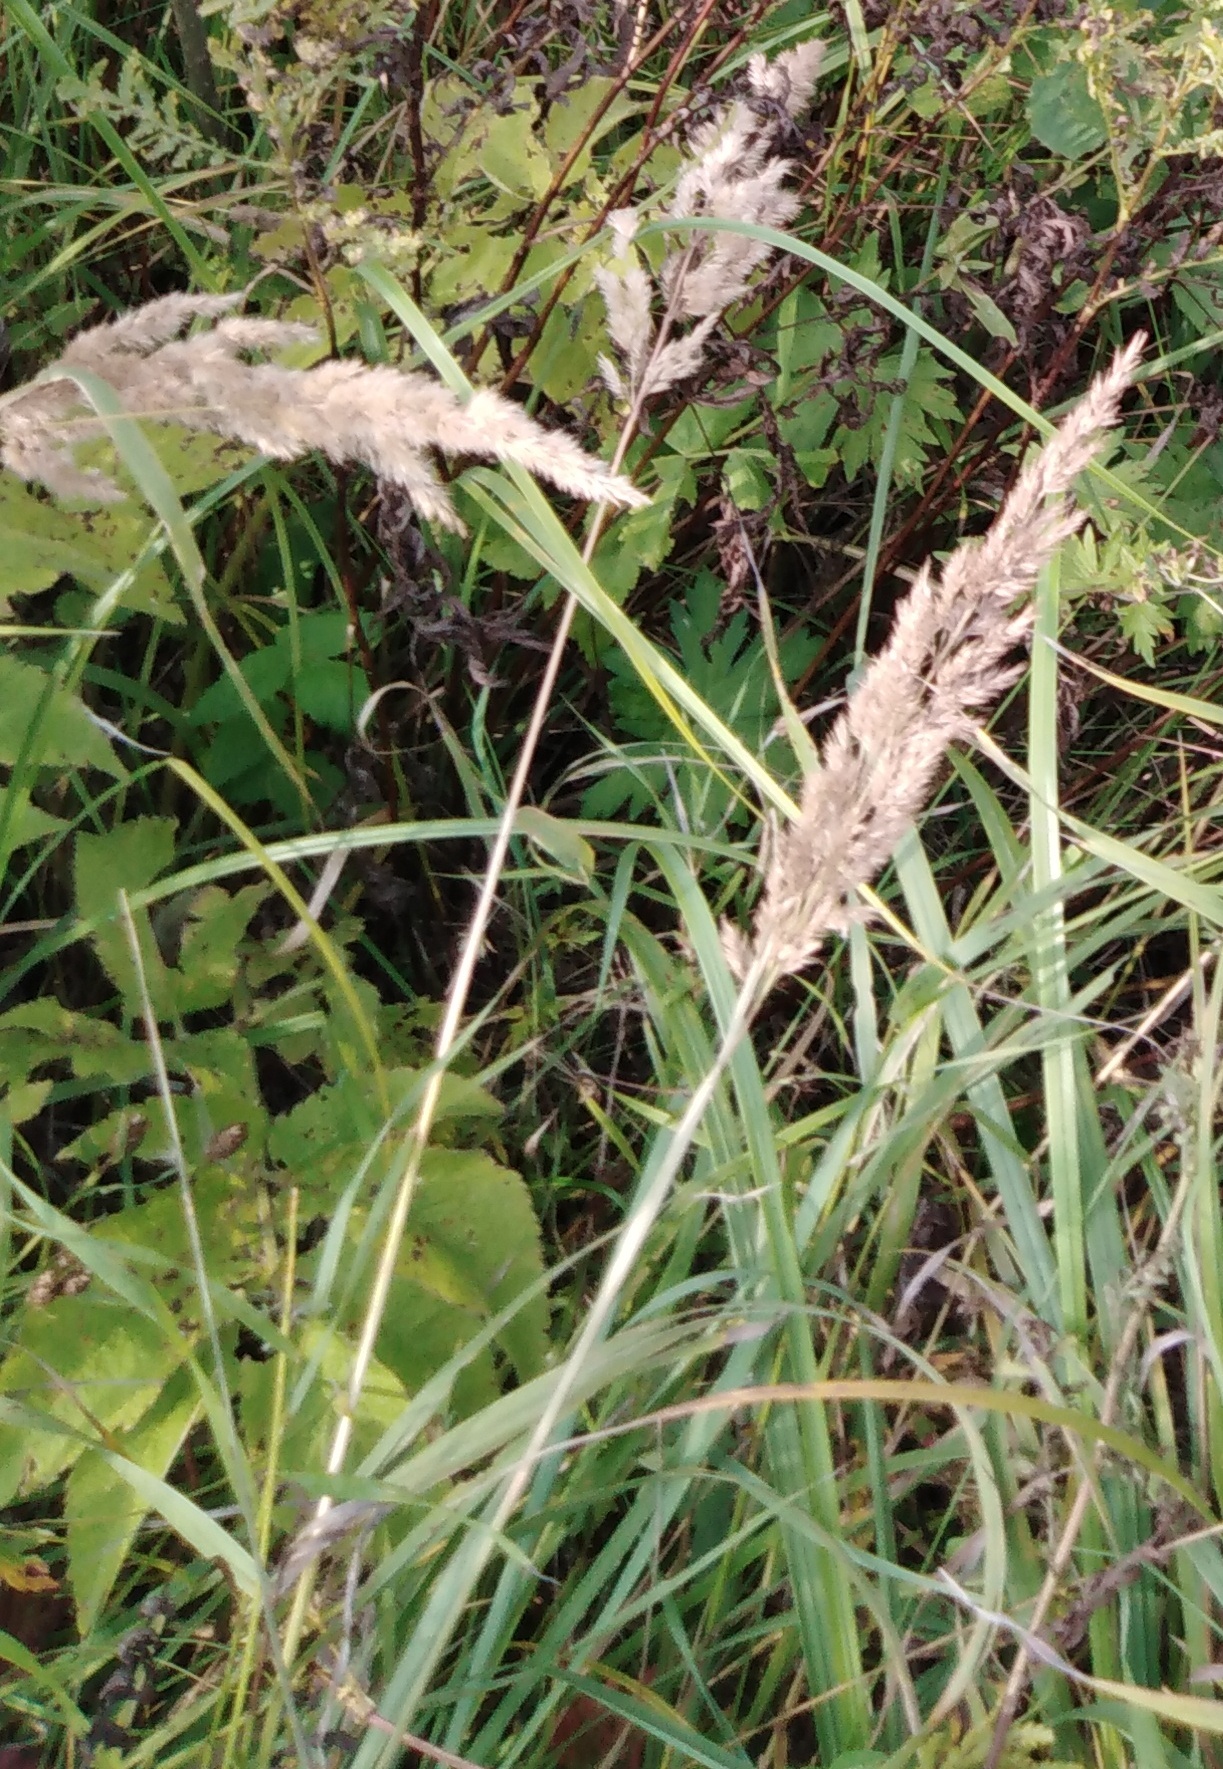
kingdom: Plantae
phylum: Tracheophyta
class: Liliopsida
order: Poales
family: Poaceae
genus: Calamagrostis
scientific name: Calamagrostis epigejos
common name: Wood small-reed
